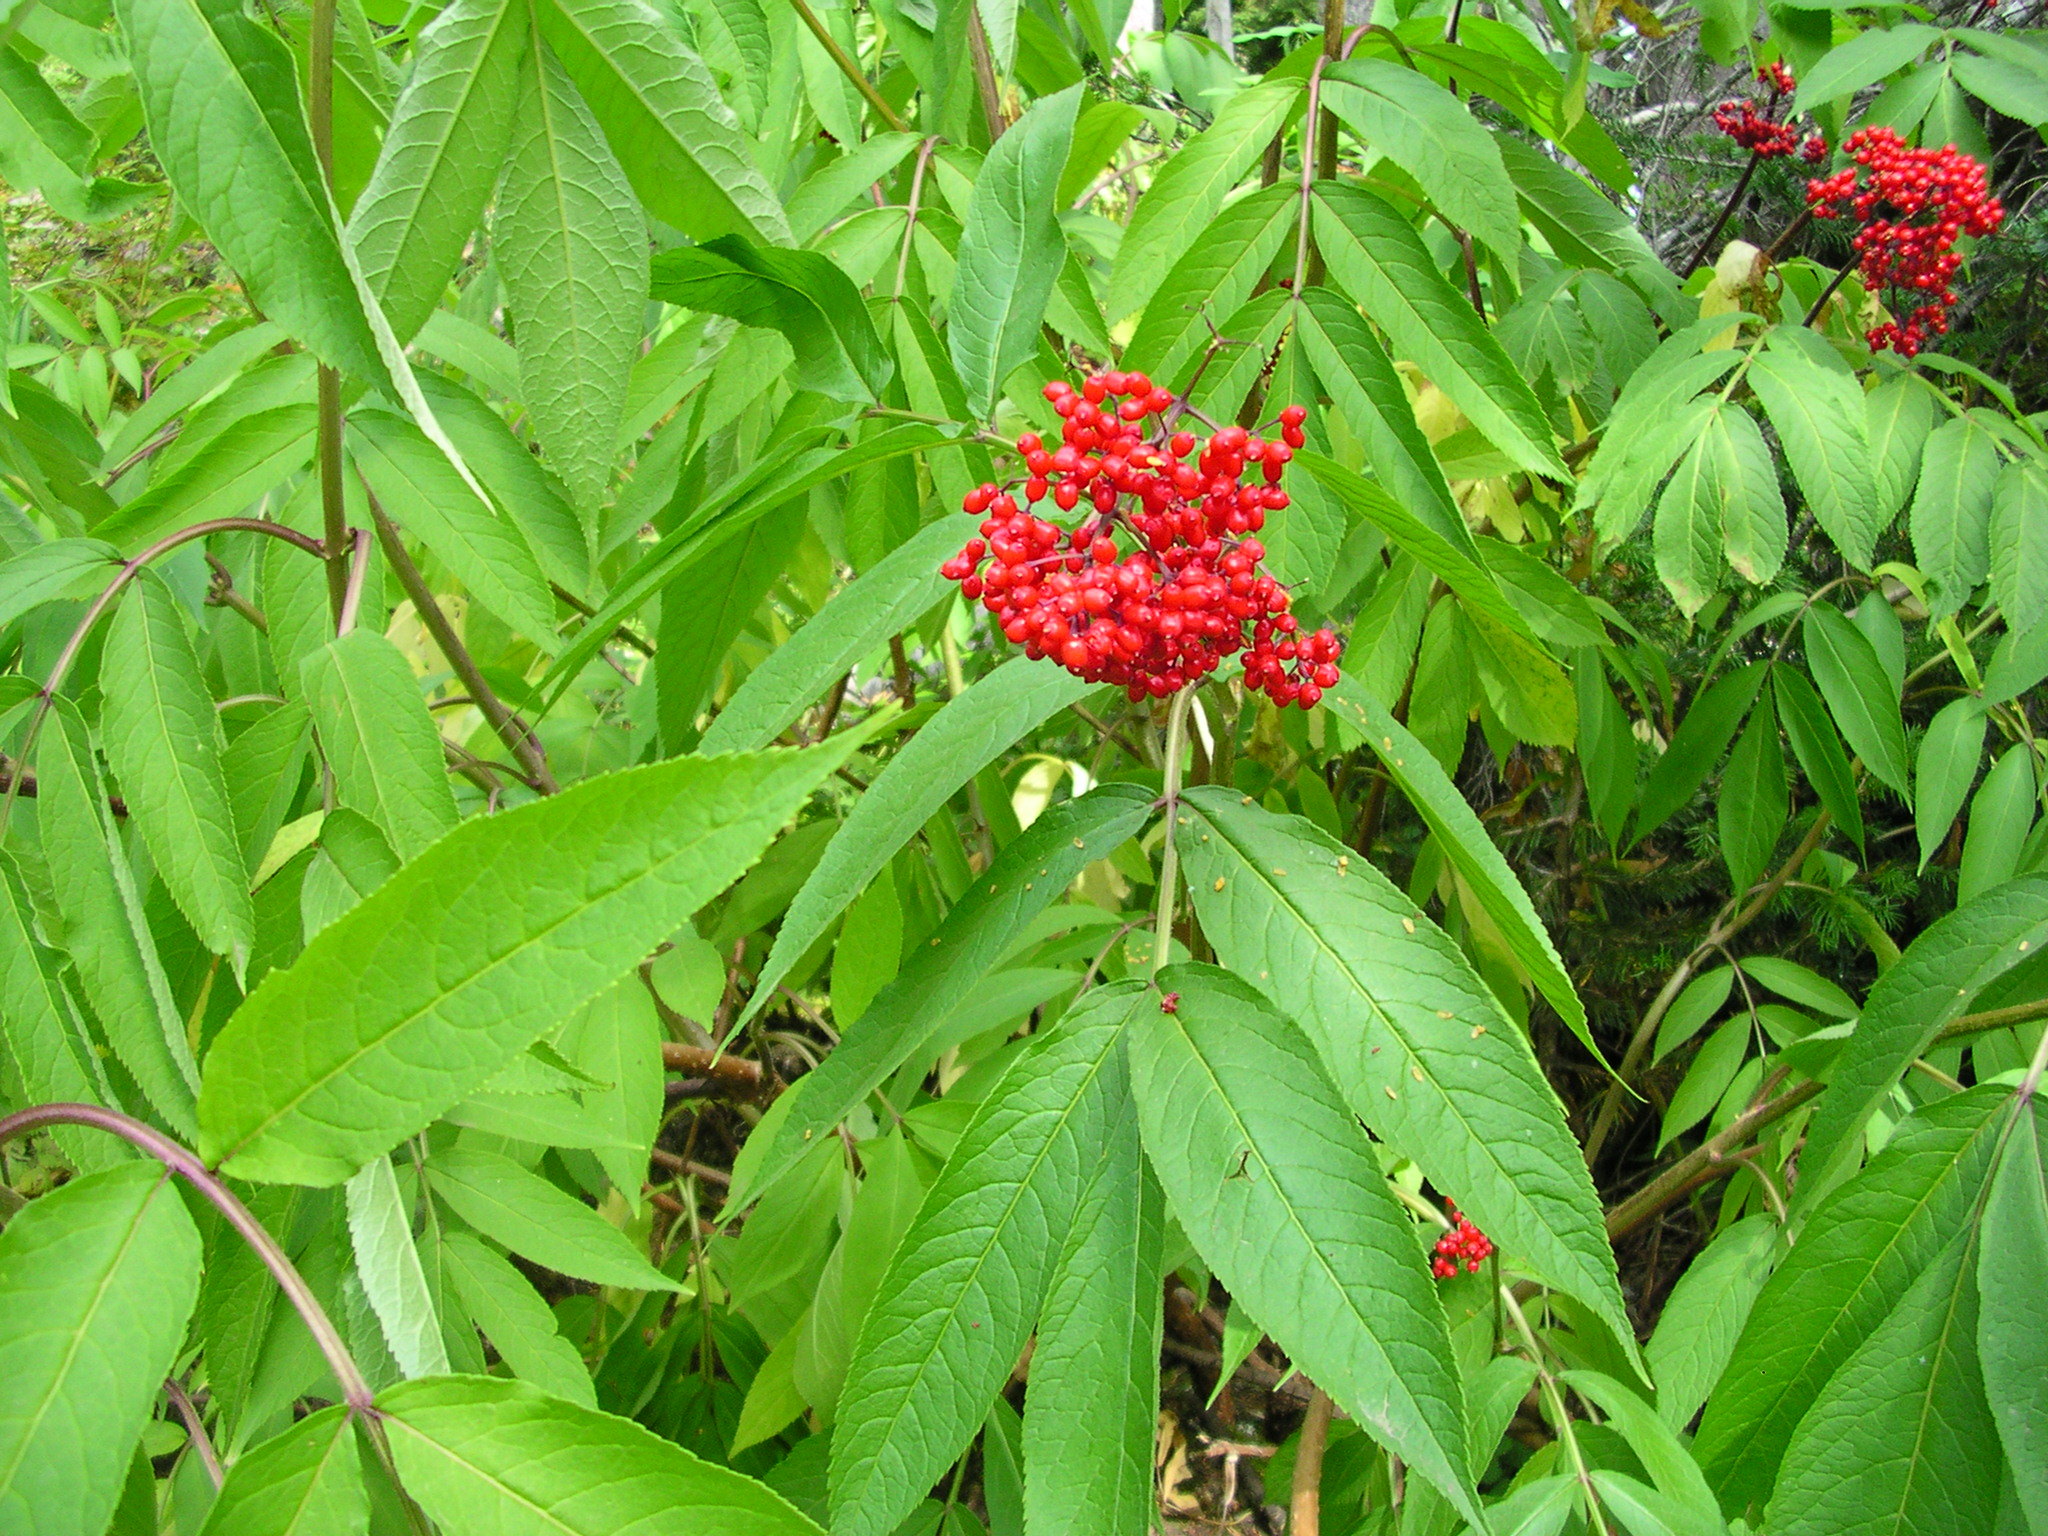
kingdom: Plantae
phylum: Tracheophyta
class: Magnoliopsida
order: Dipsacales
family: Viburnaceae
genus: Sambucus
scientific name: Sambucus racemosa
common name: Red-berried elder
